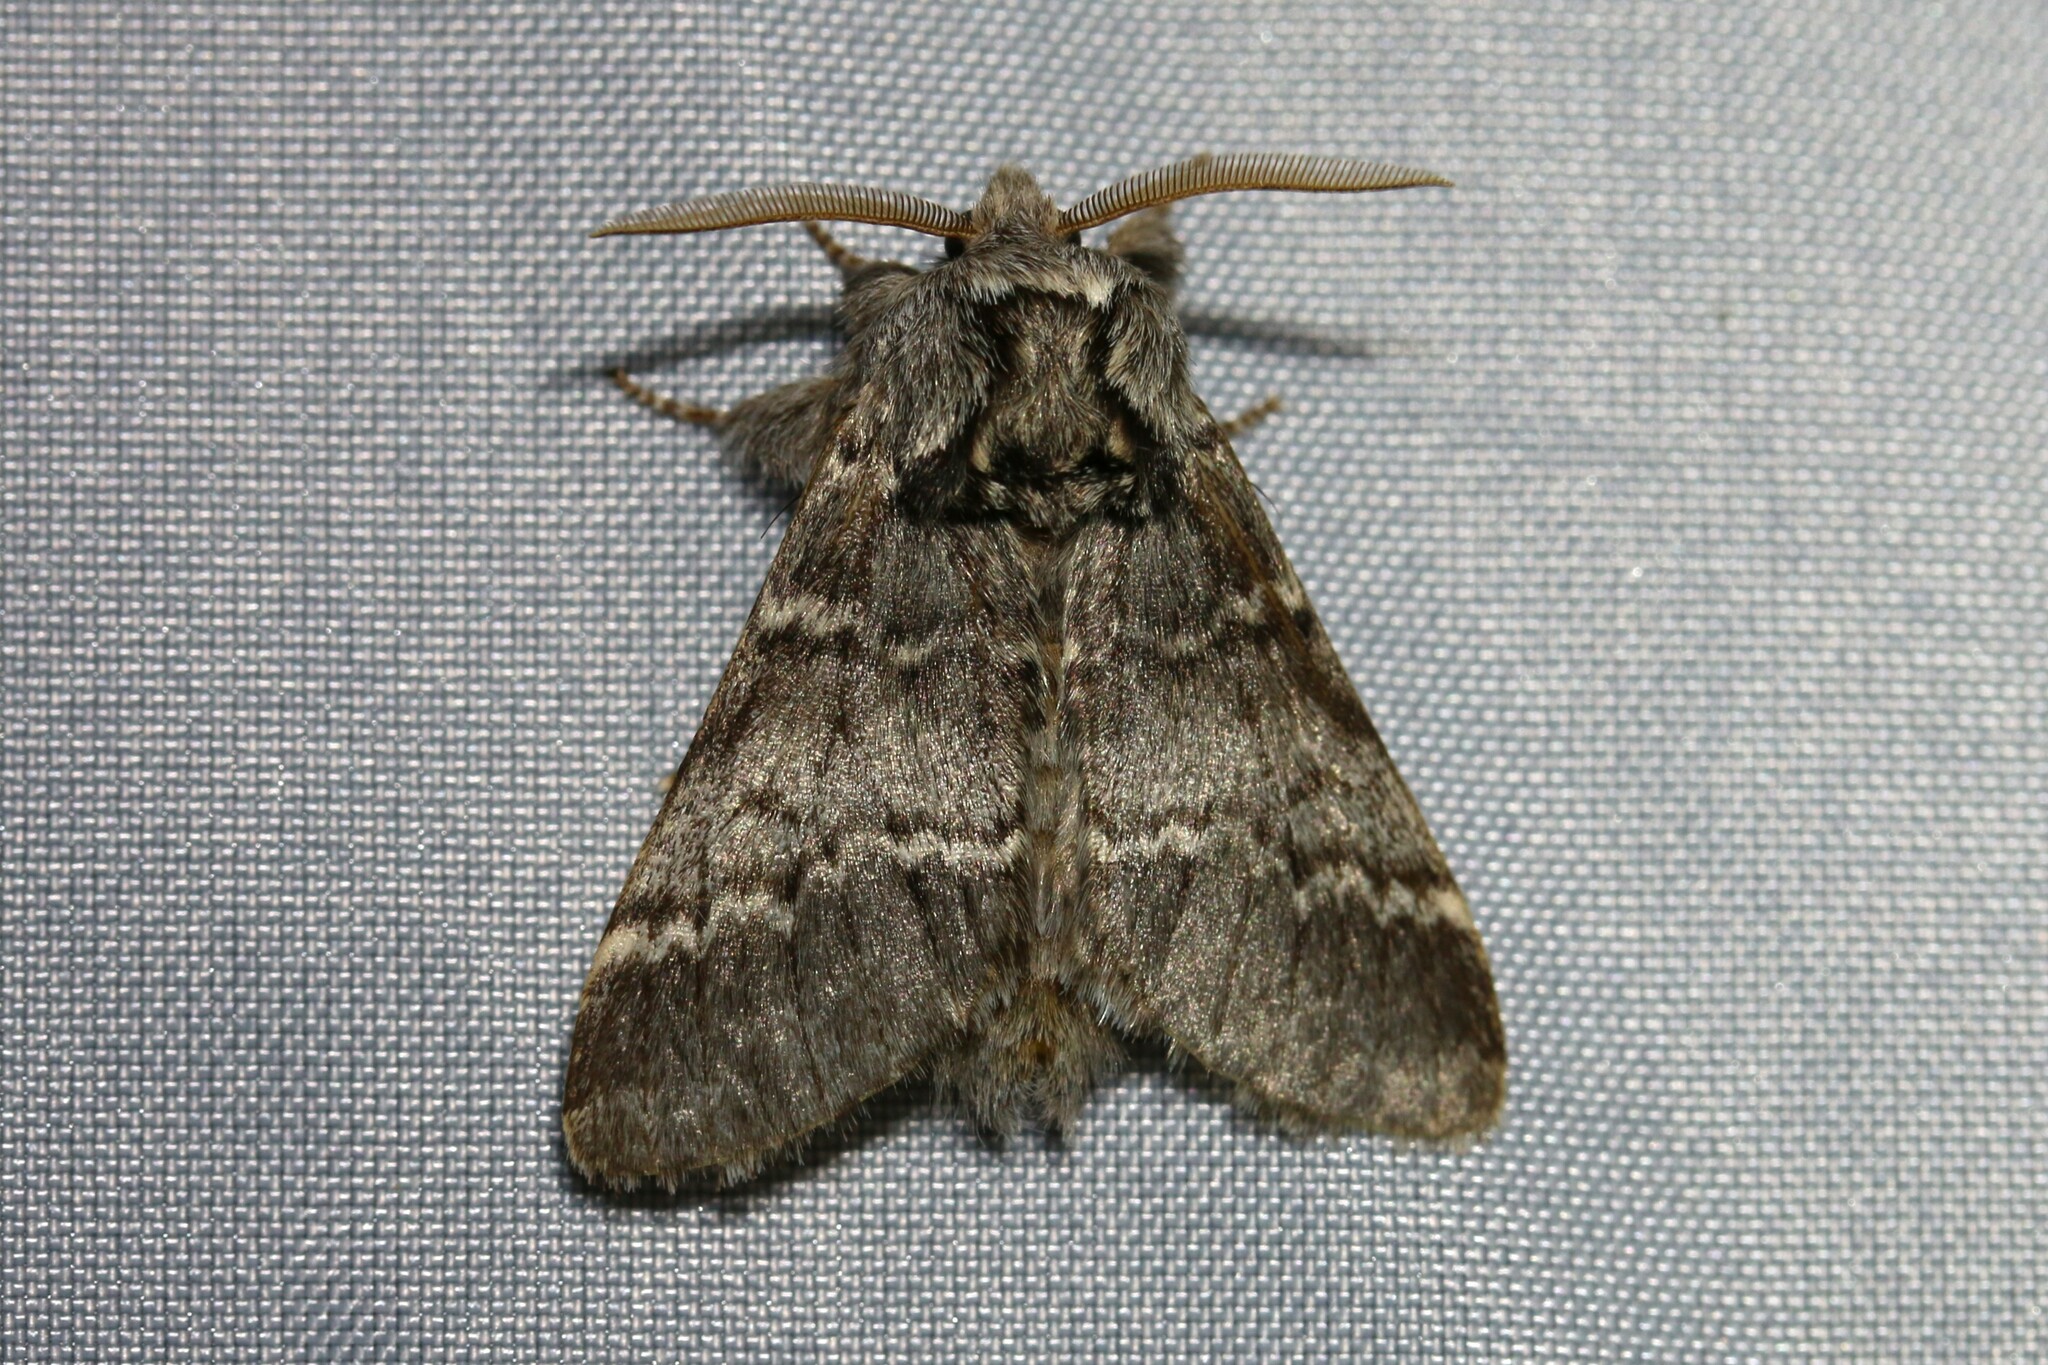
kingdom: Animalia
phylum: Arthropoda
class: Insecta
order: Lepidoptera
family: Notodontidae
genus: Drymonia
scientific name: Drymonia ruficornis
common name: Lunar marbled brown
